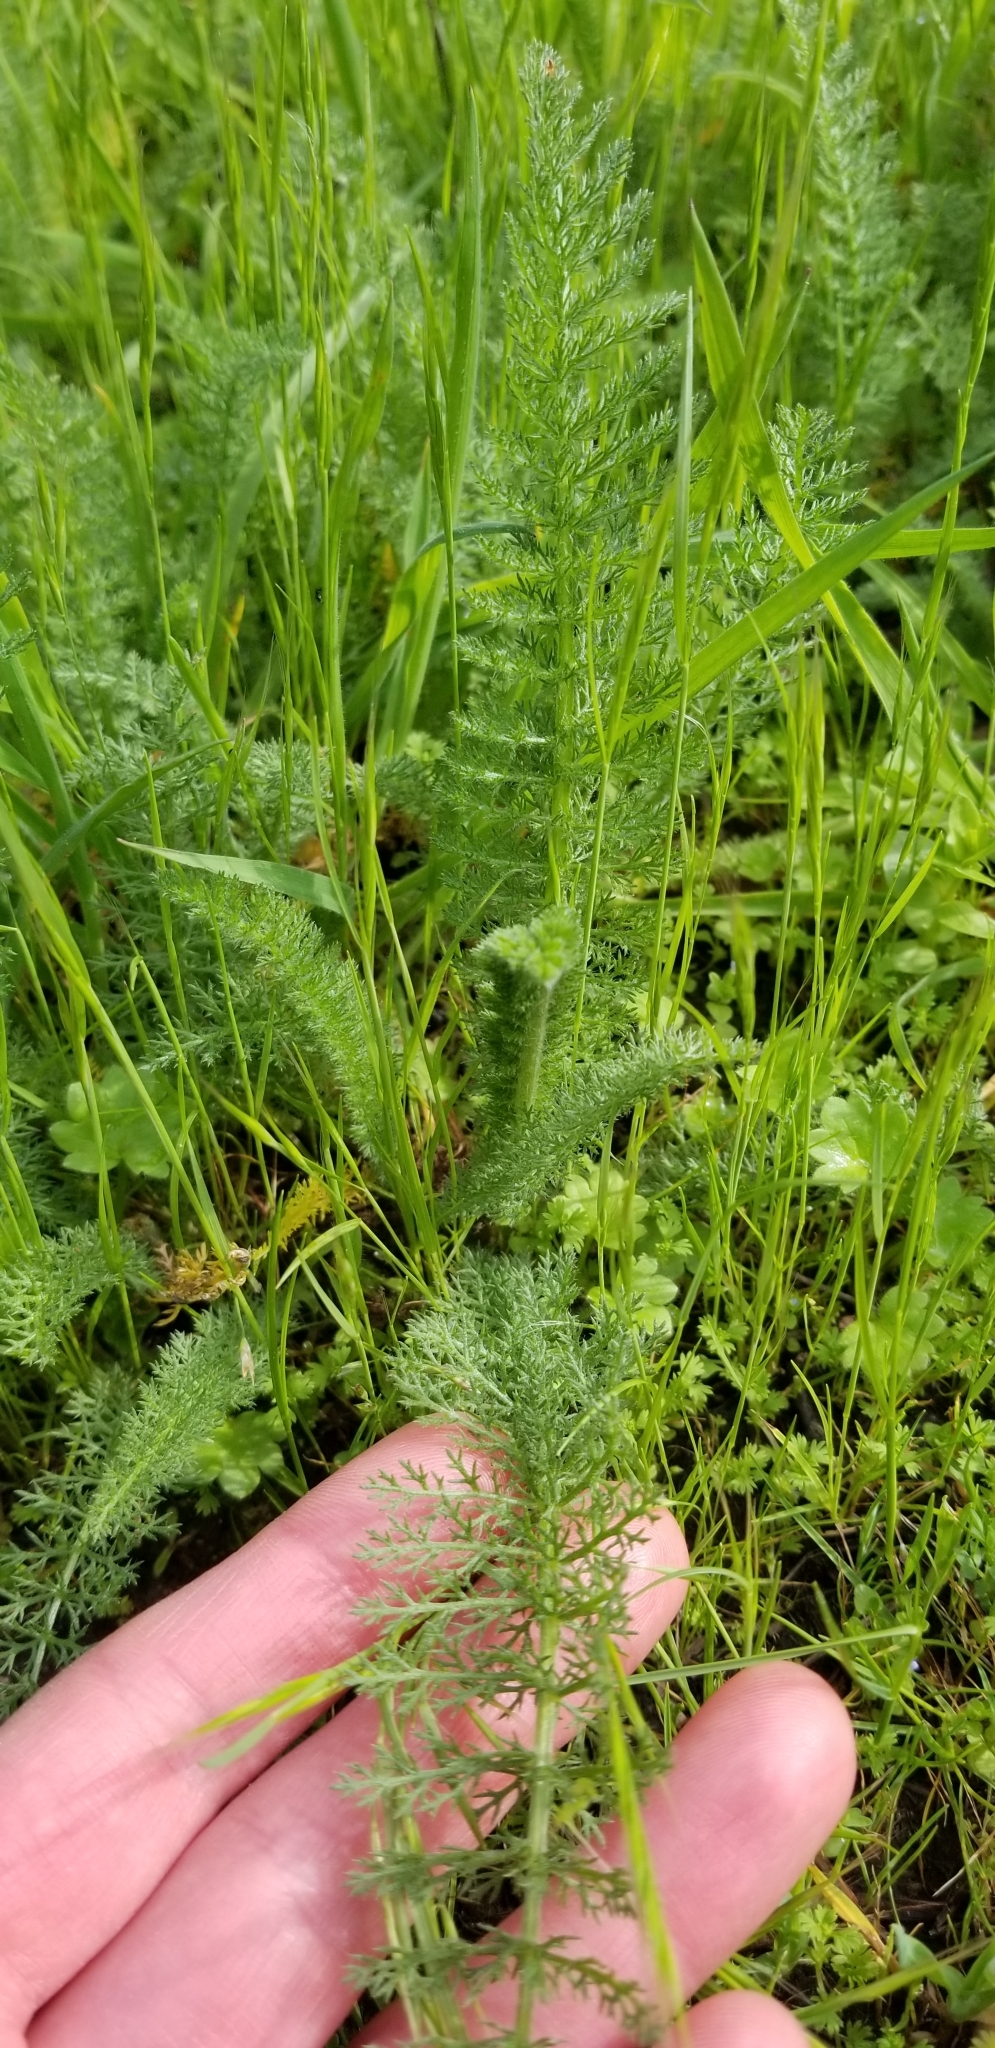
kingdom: Plantae
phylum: Tracheophyta
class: Magnoliopsida
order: Asterales
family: Asteraceae
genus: Achillea
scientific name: Achillea millefolium
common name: Yarrow
